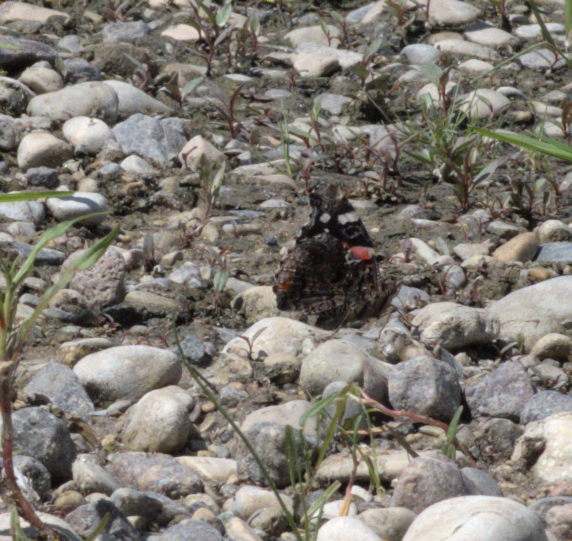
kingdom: Animalia
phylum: Arthropoda
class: Insecta
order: Lepidoptera
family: Nymphalidae
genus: Vanessa
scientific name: Vanessa atalanta
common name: Red admiral
